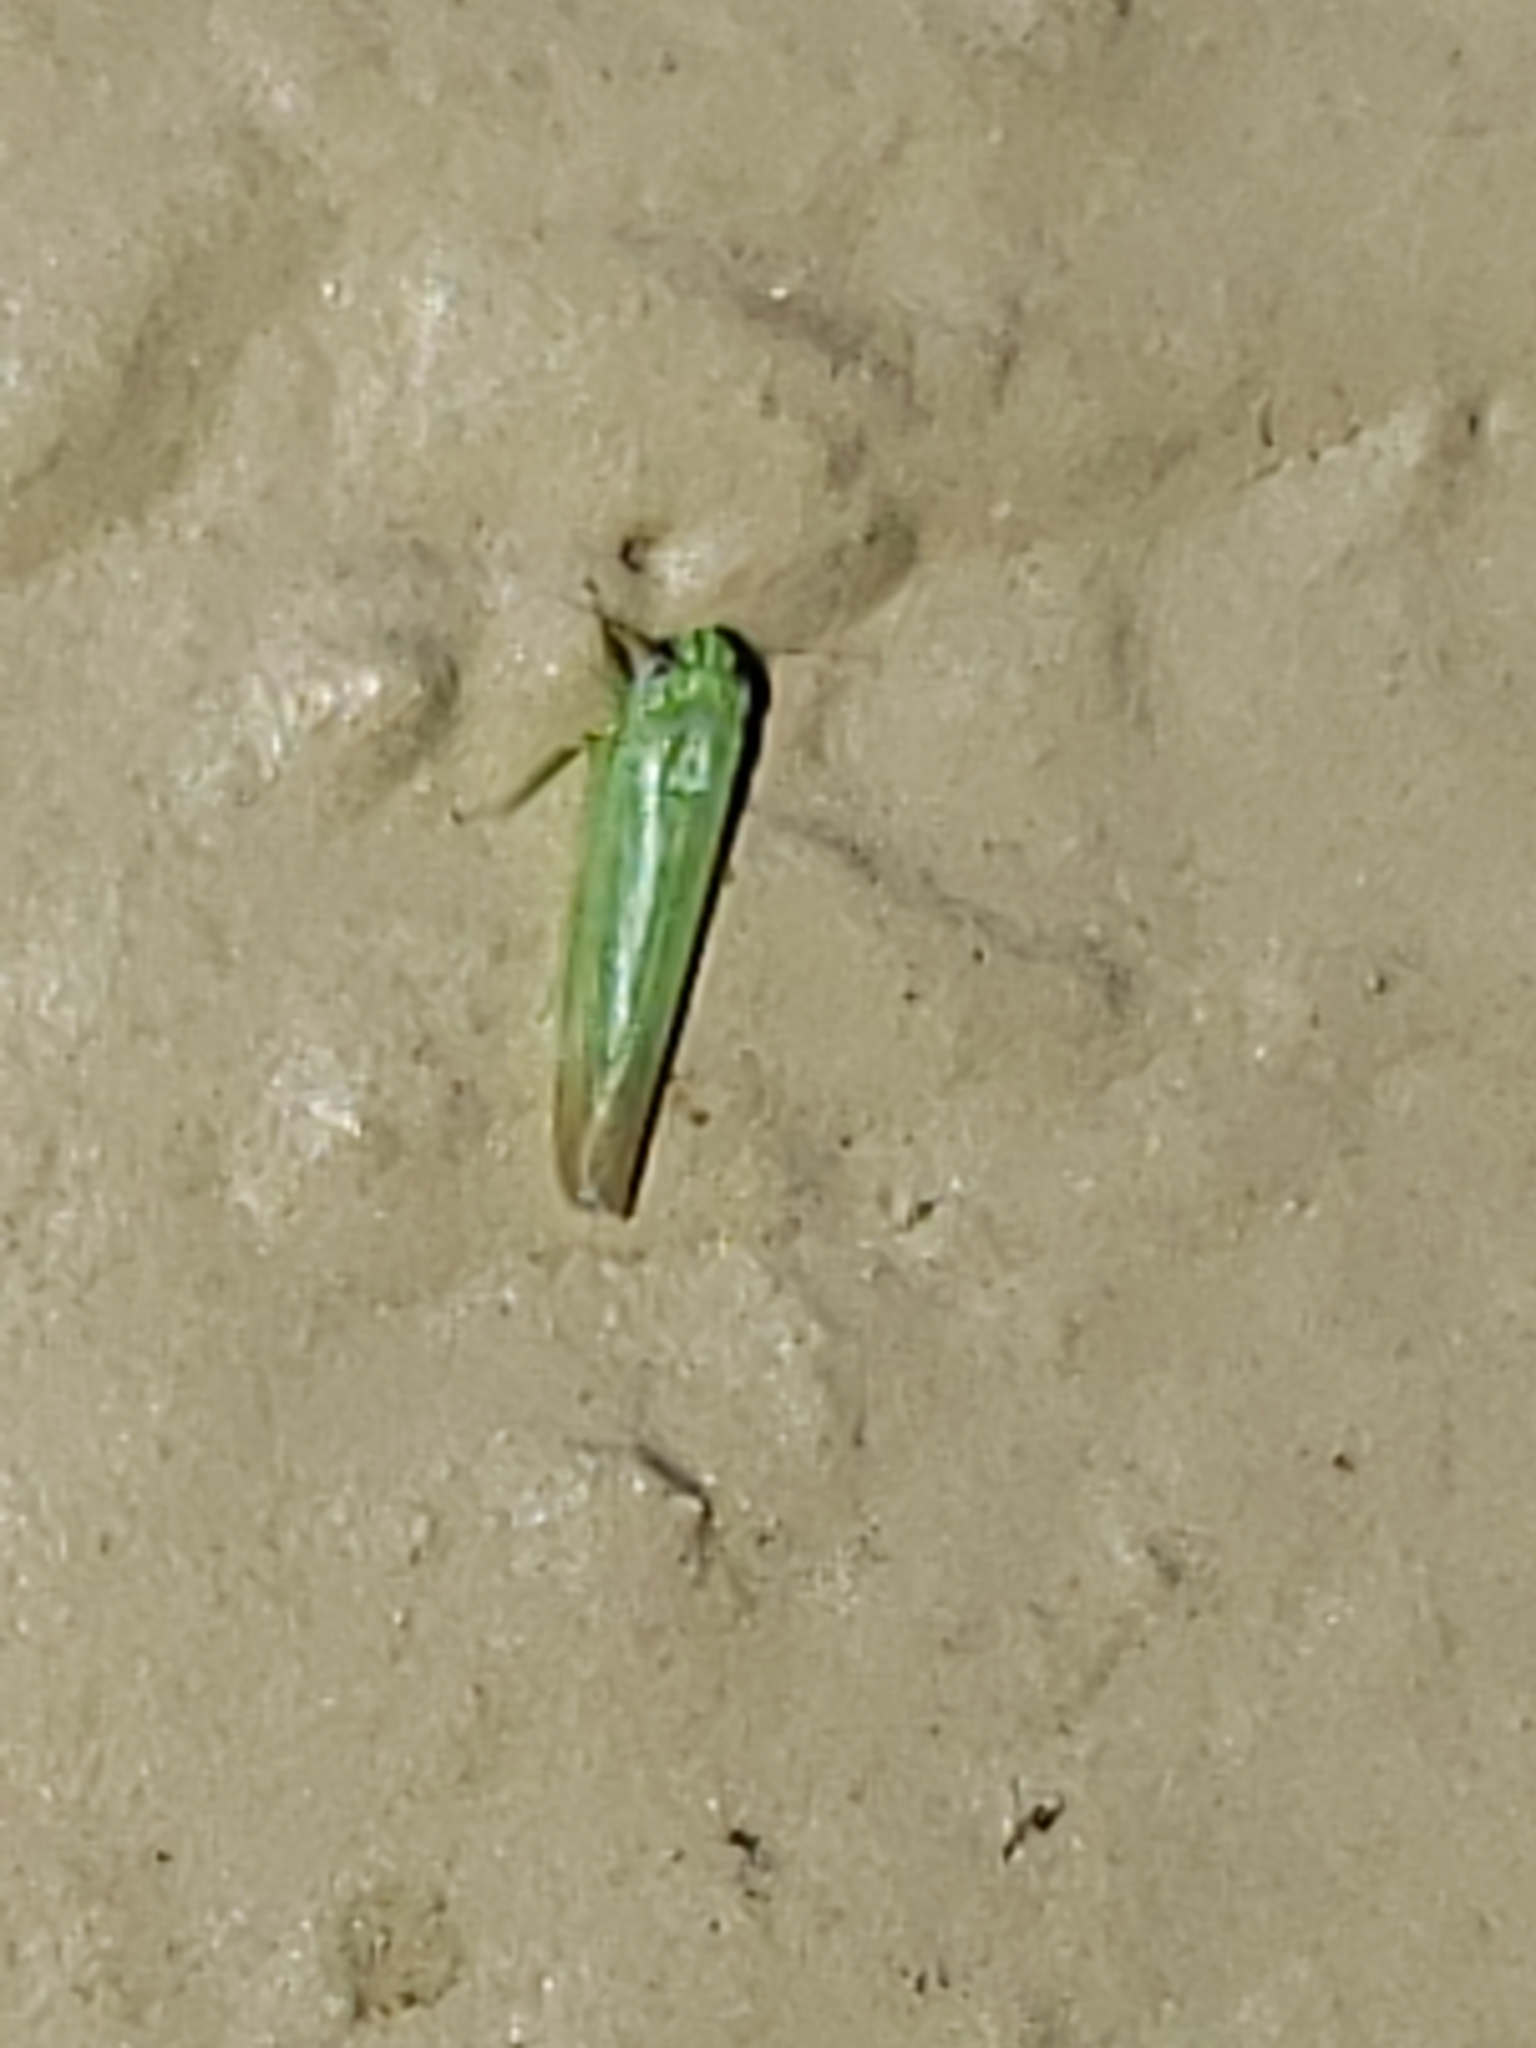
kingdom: Animalia
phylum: Arthropoda
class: Insecta
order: Hemiptera
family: Cicadellidae
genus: Empoasca
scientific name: Empoasca fabae
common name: Potato leafhopper
